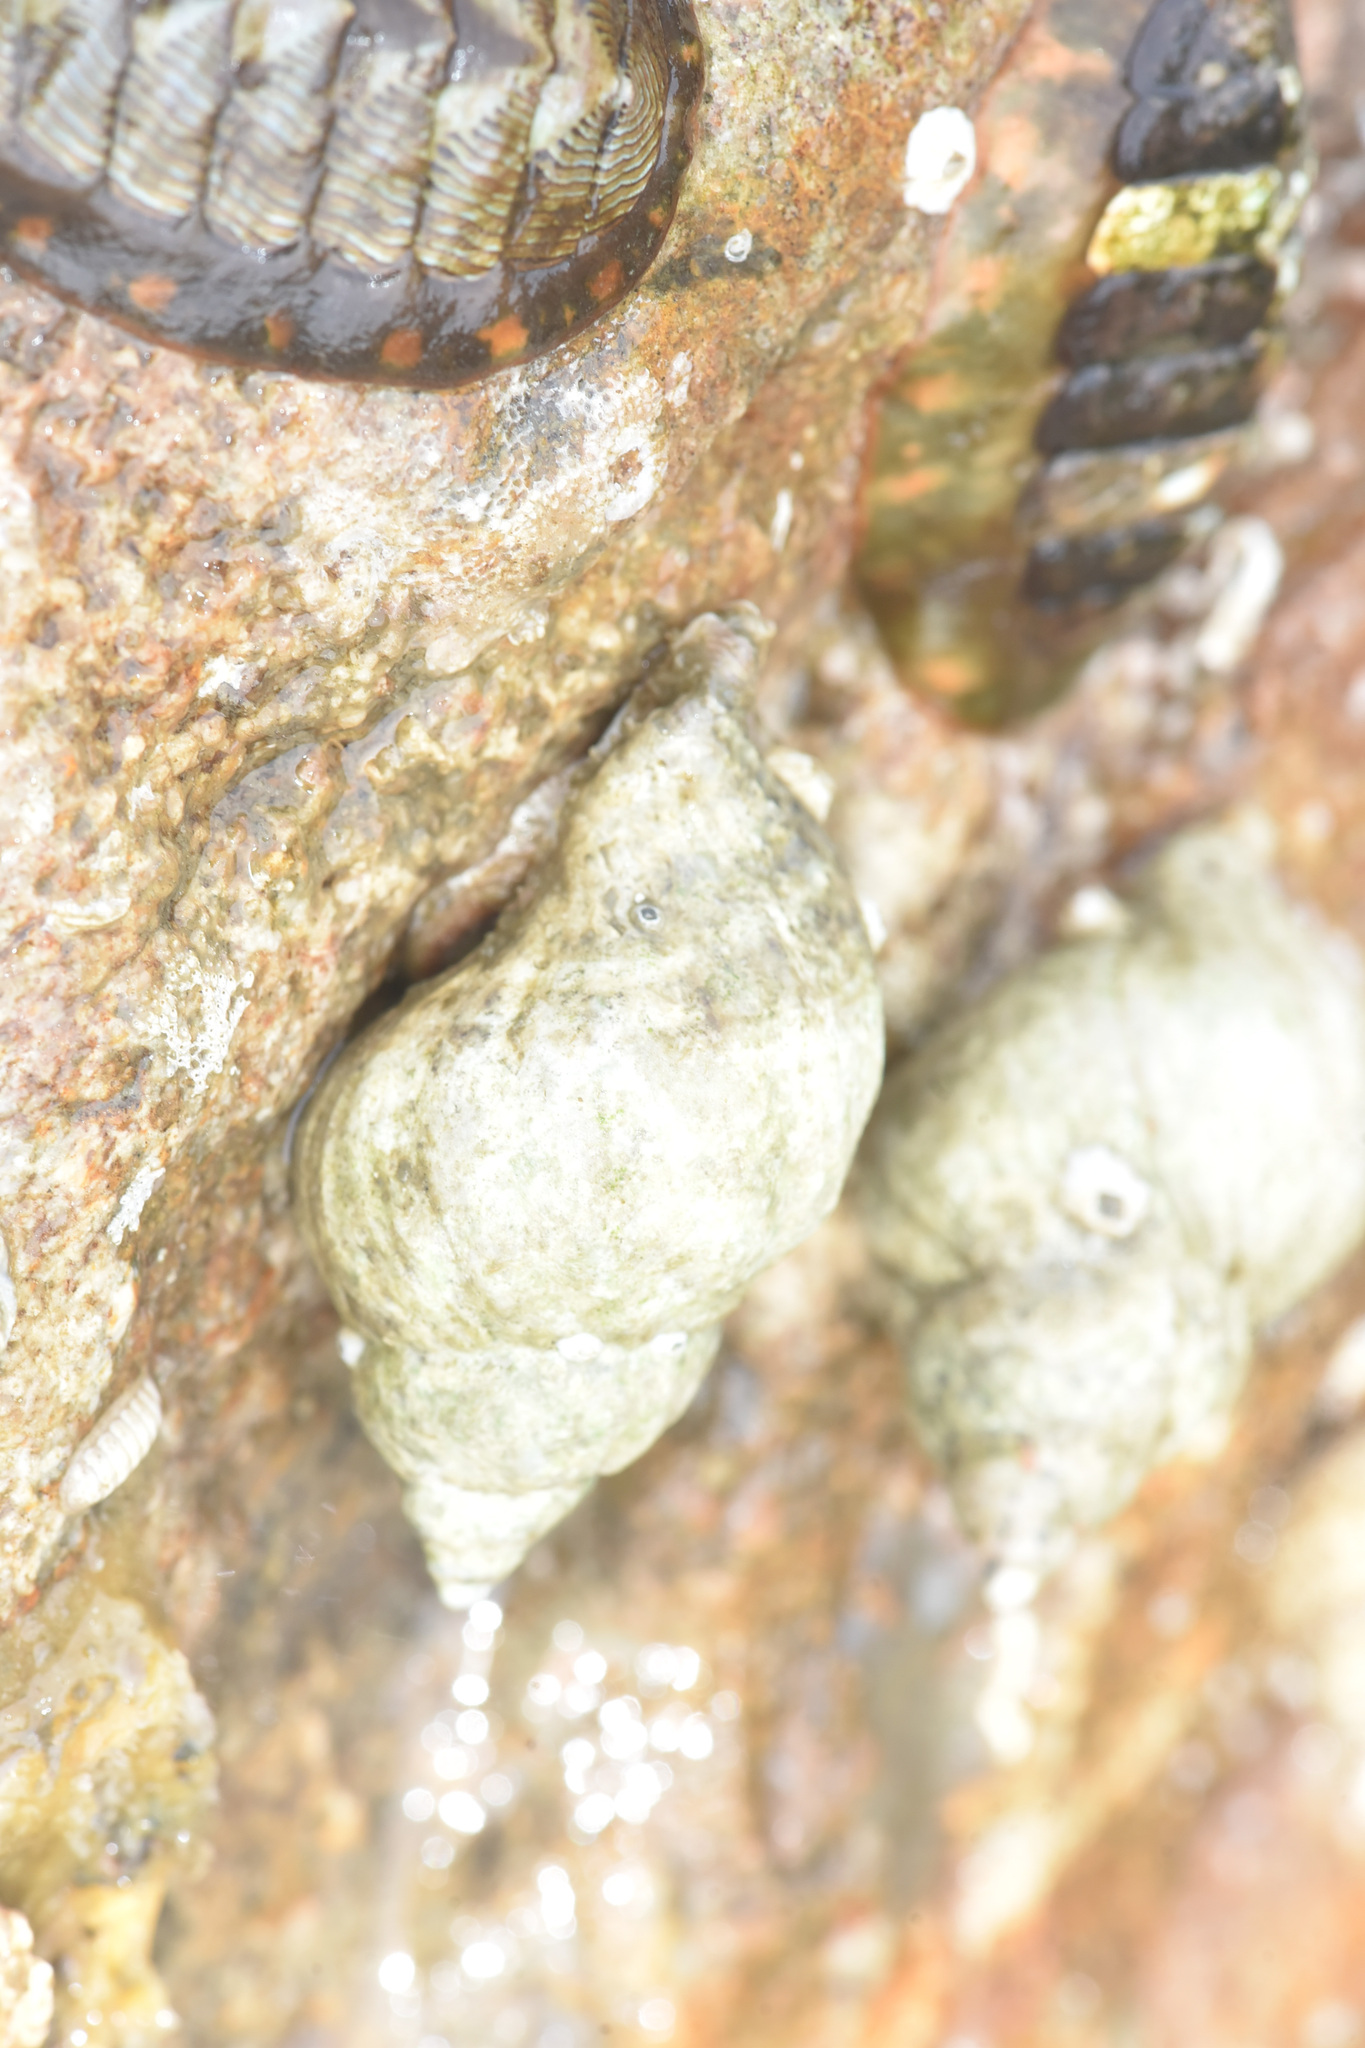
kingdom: Animalia
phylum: Mollusca
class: Gastropoda
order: Neogastropoda
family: Muricidae
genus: Nucella
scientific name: Nucella lamellosa
